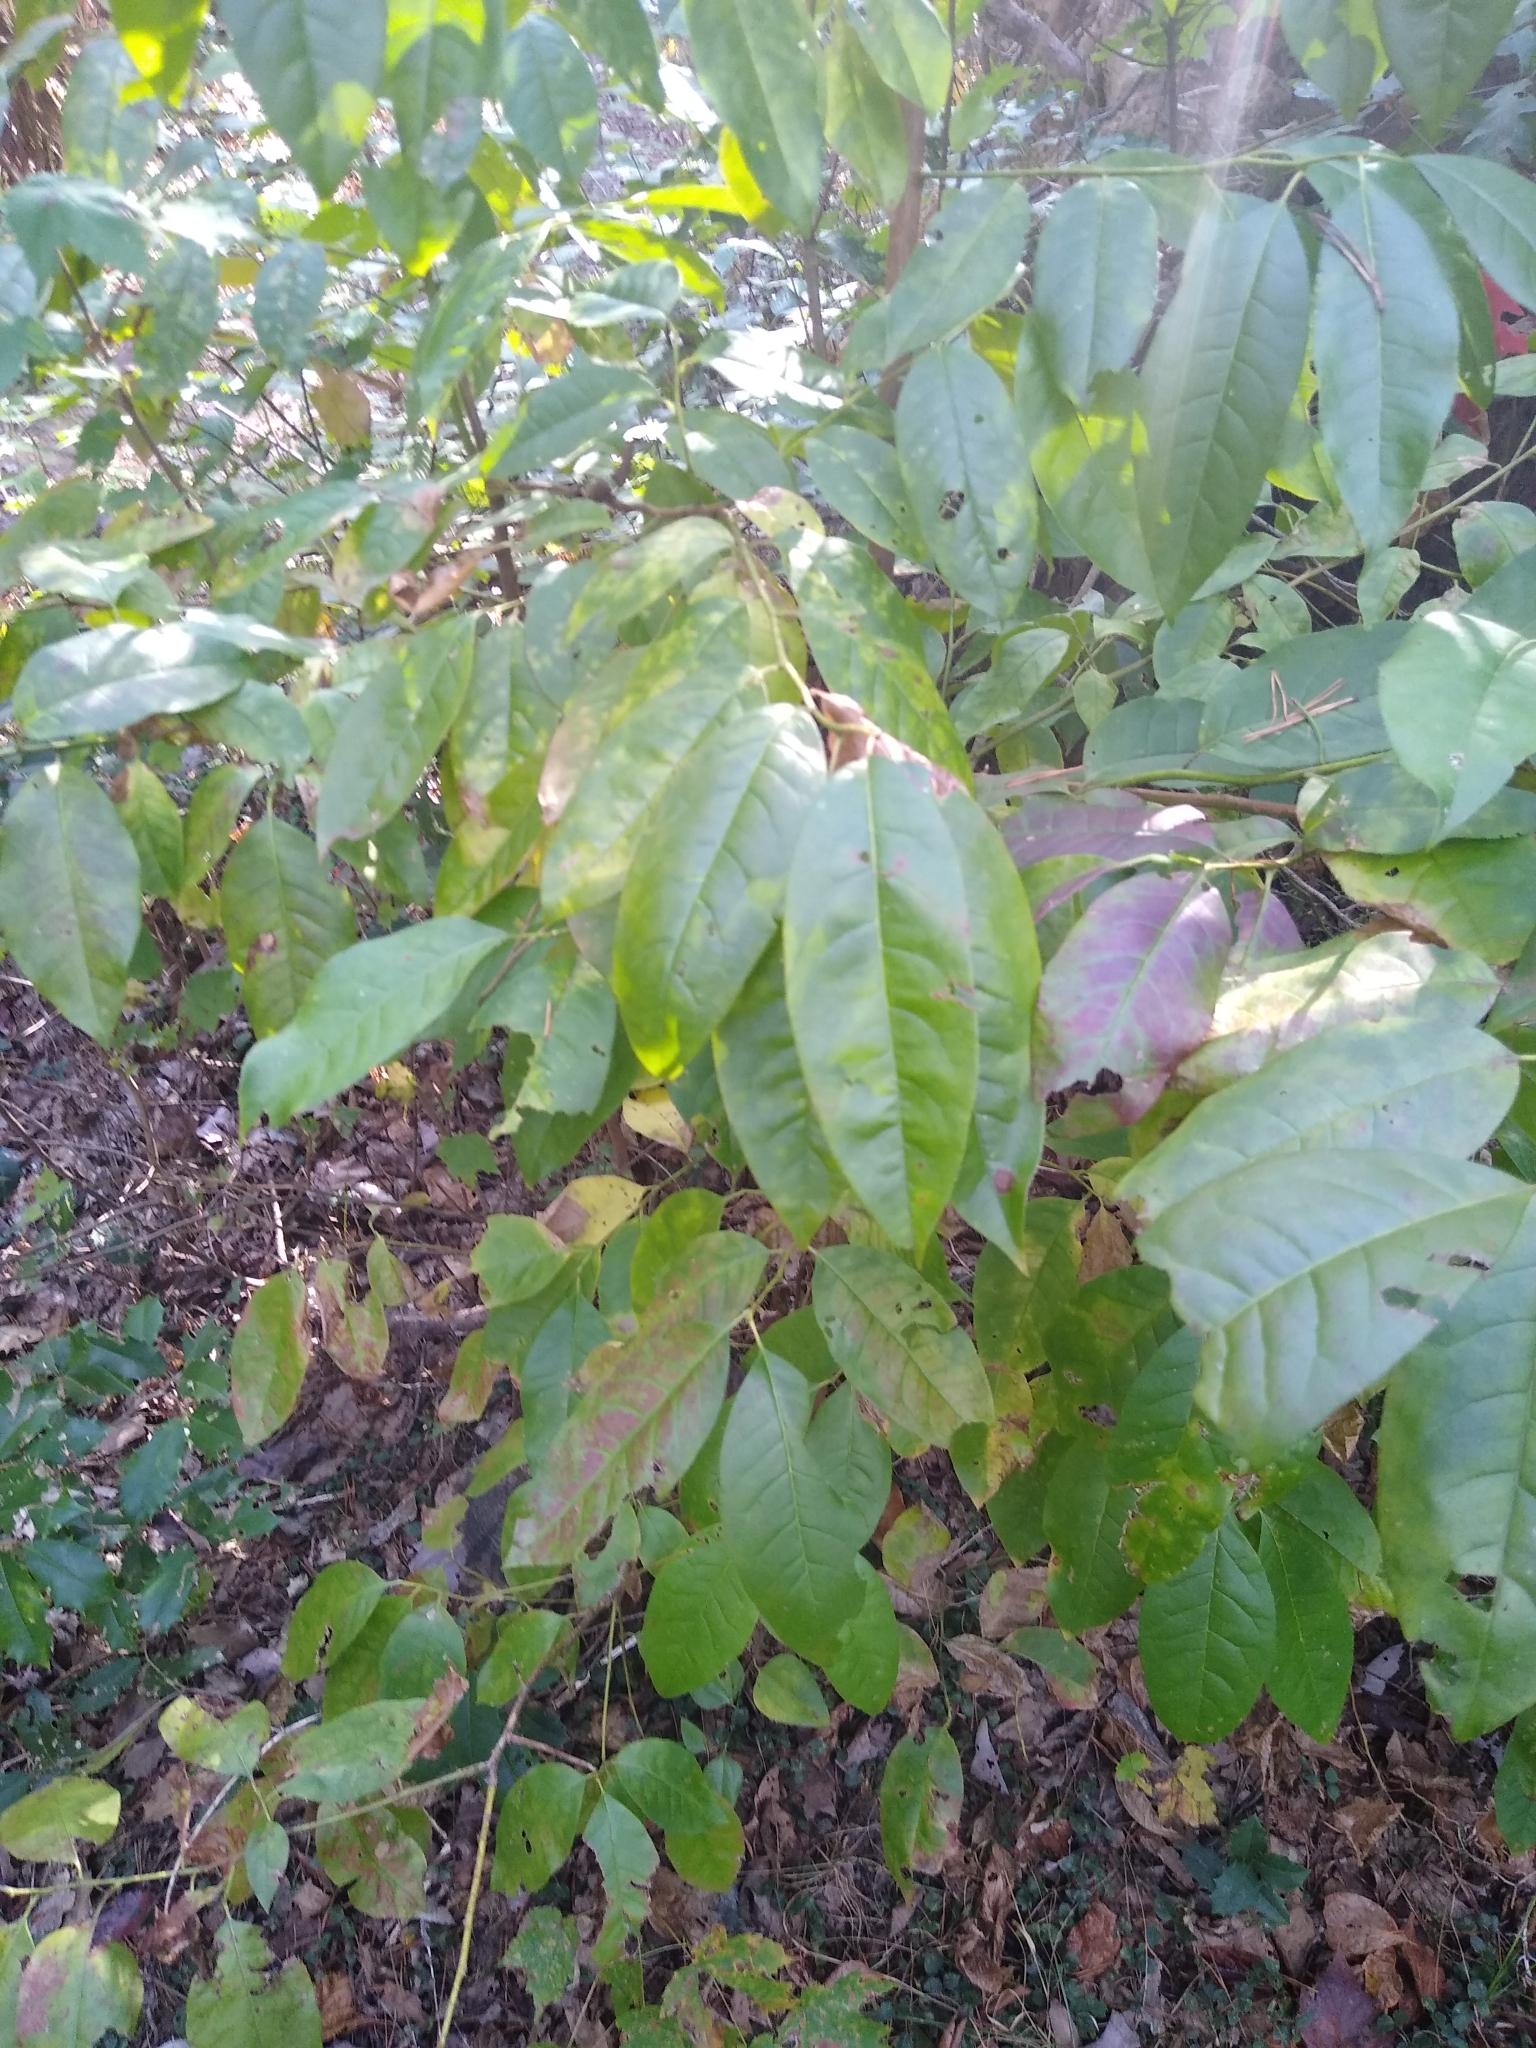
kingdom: Plantae
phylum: Tracheophyta
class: Magnoliopsida
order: Ericales
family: Ericaceae
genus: Oxydendrum
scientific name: Oxydendrum arboreum
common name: Sourwood
